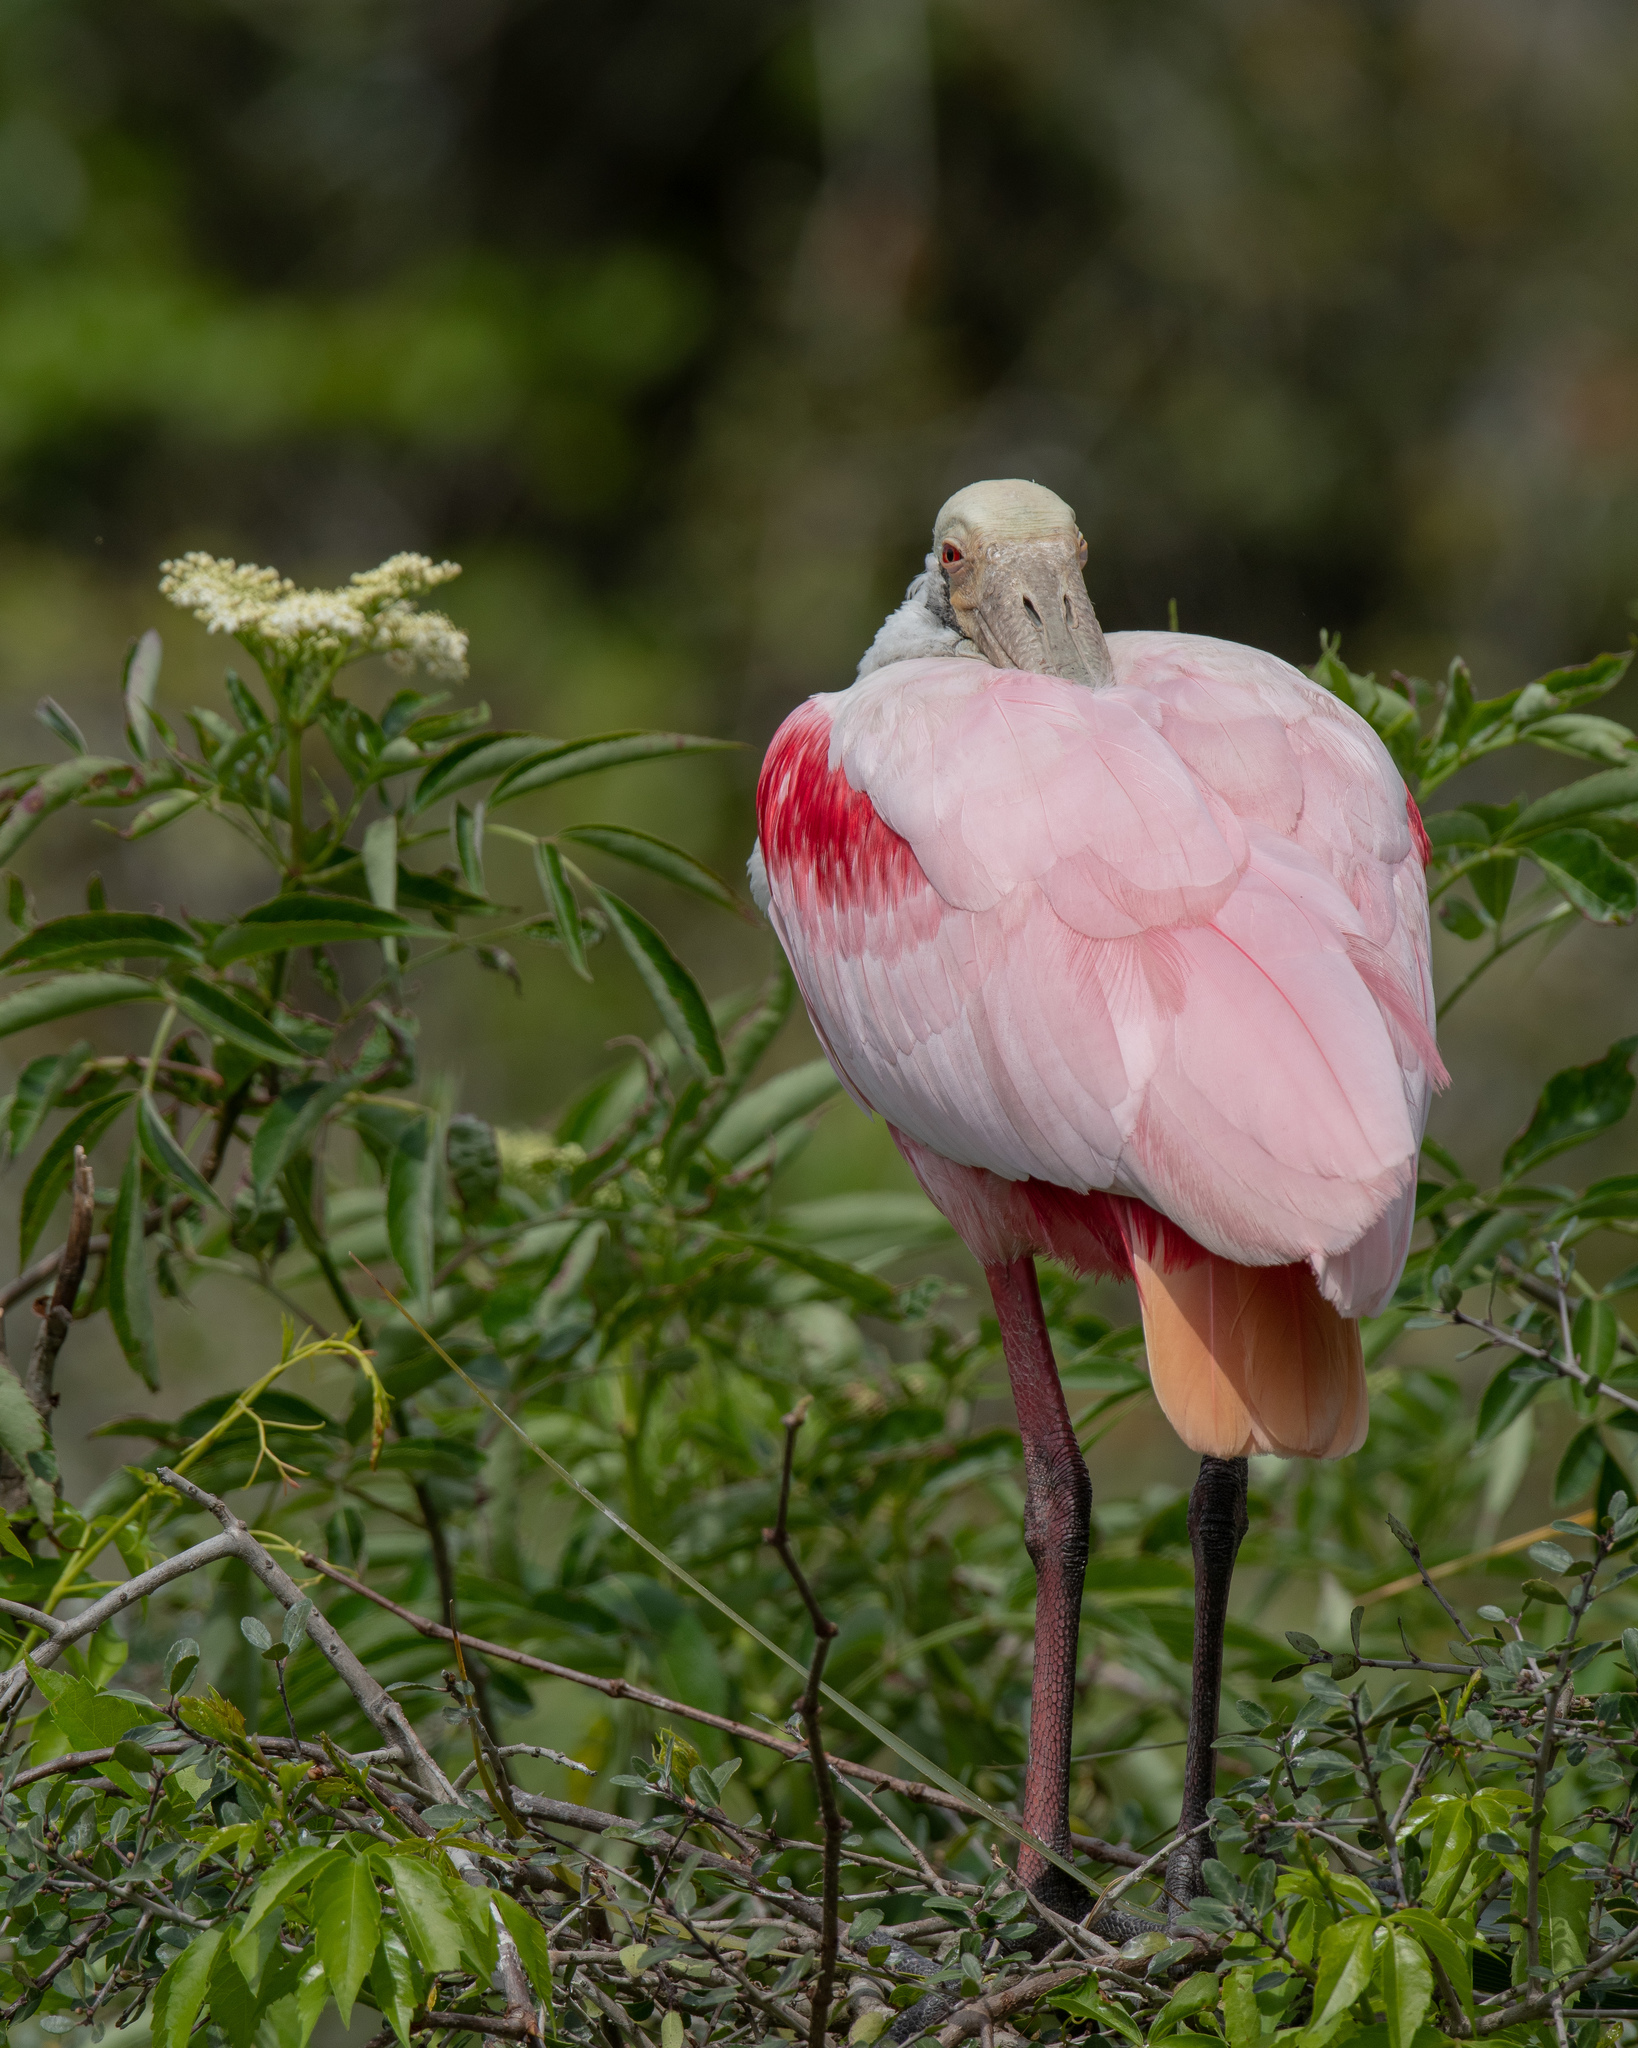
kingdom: Animalia
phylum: Chordata
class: Aves
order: Pelecaniformes
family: Threskiornithidae
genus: Platalea
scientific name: Platalea ajaja
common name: Roseate spoonbill
